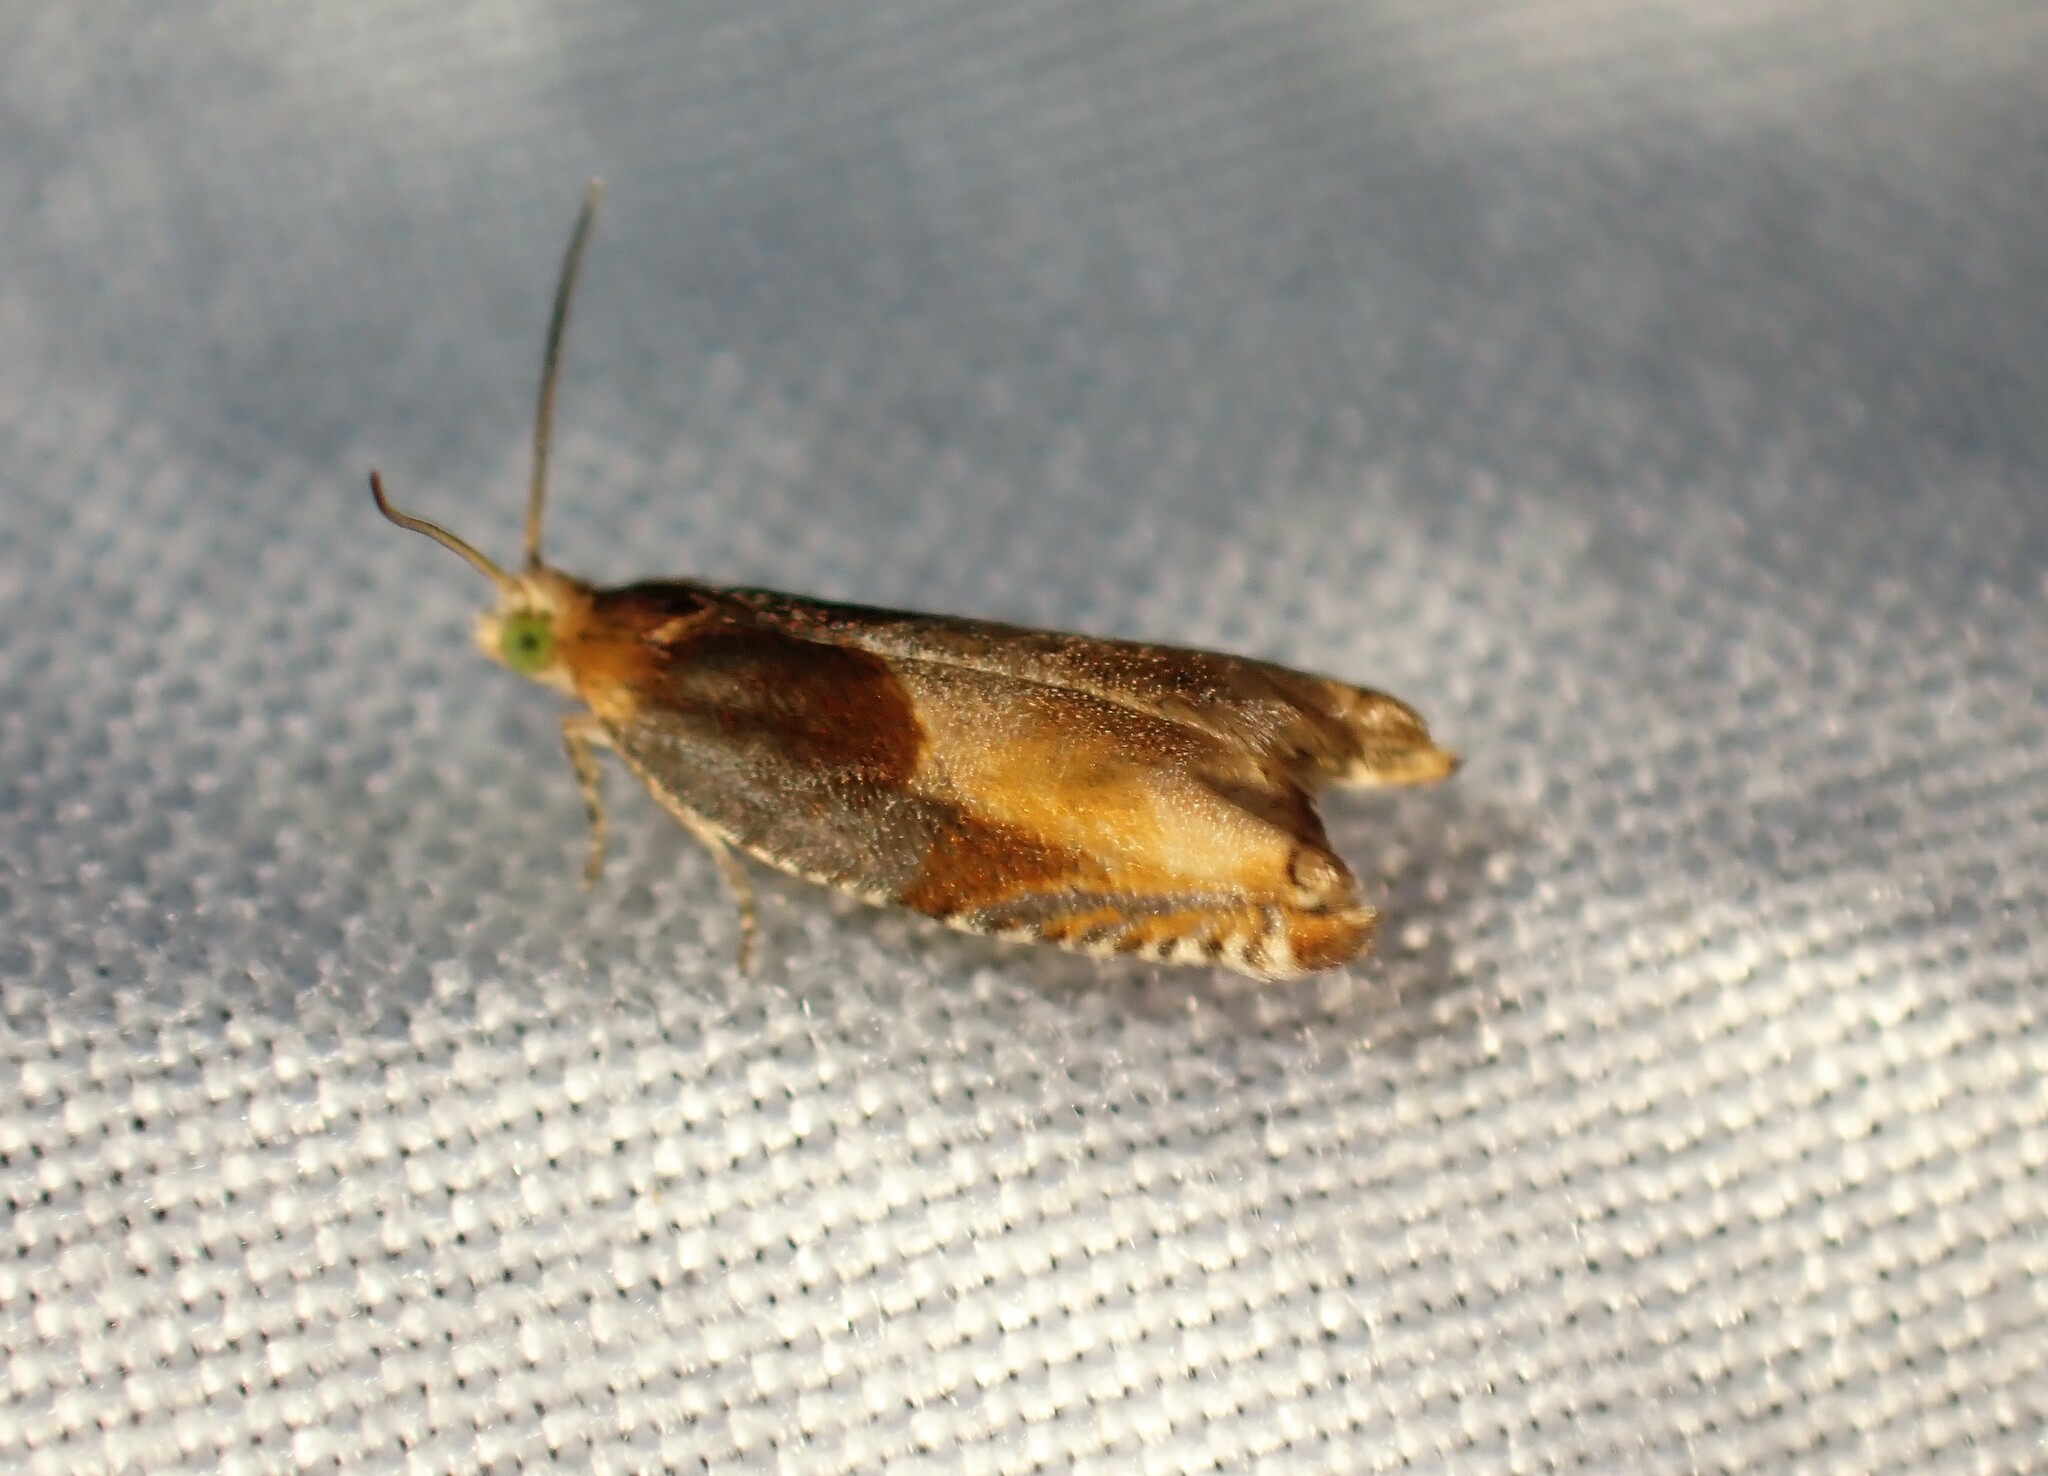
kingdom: Animalia
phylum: Arthropoda
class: Insecta
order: Lepidoptera
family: Tortricidae
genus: Ancylis
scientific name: Ancylis divisana
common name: Two-toned ancylis moth
